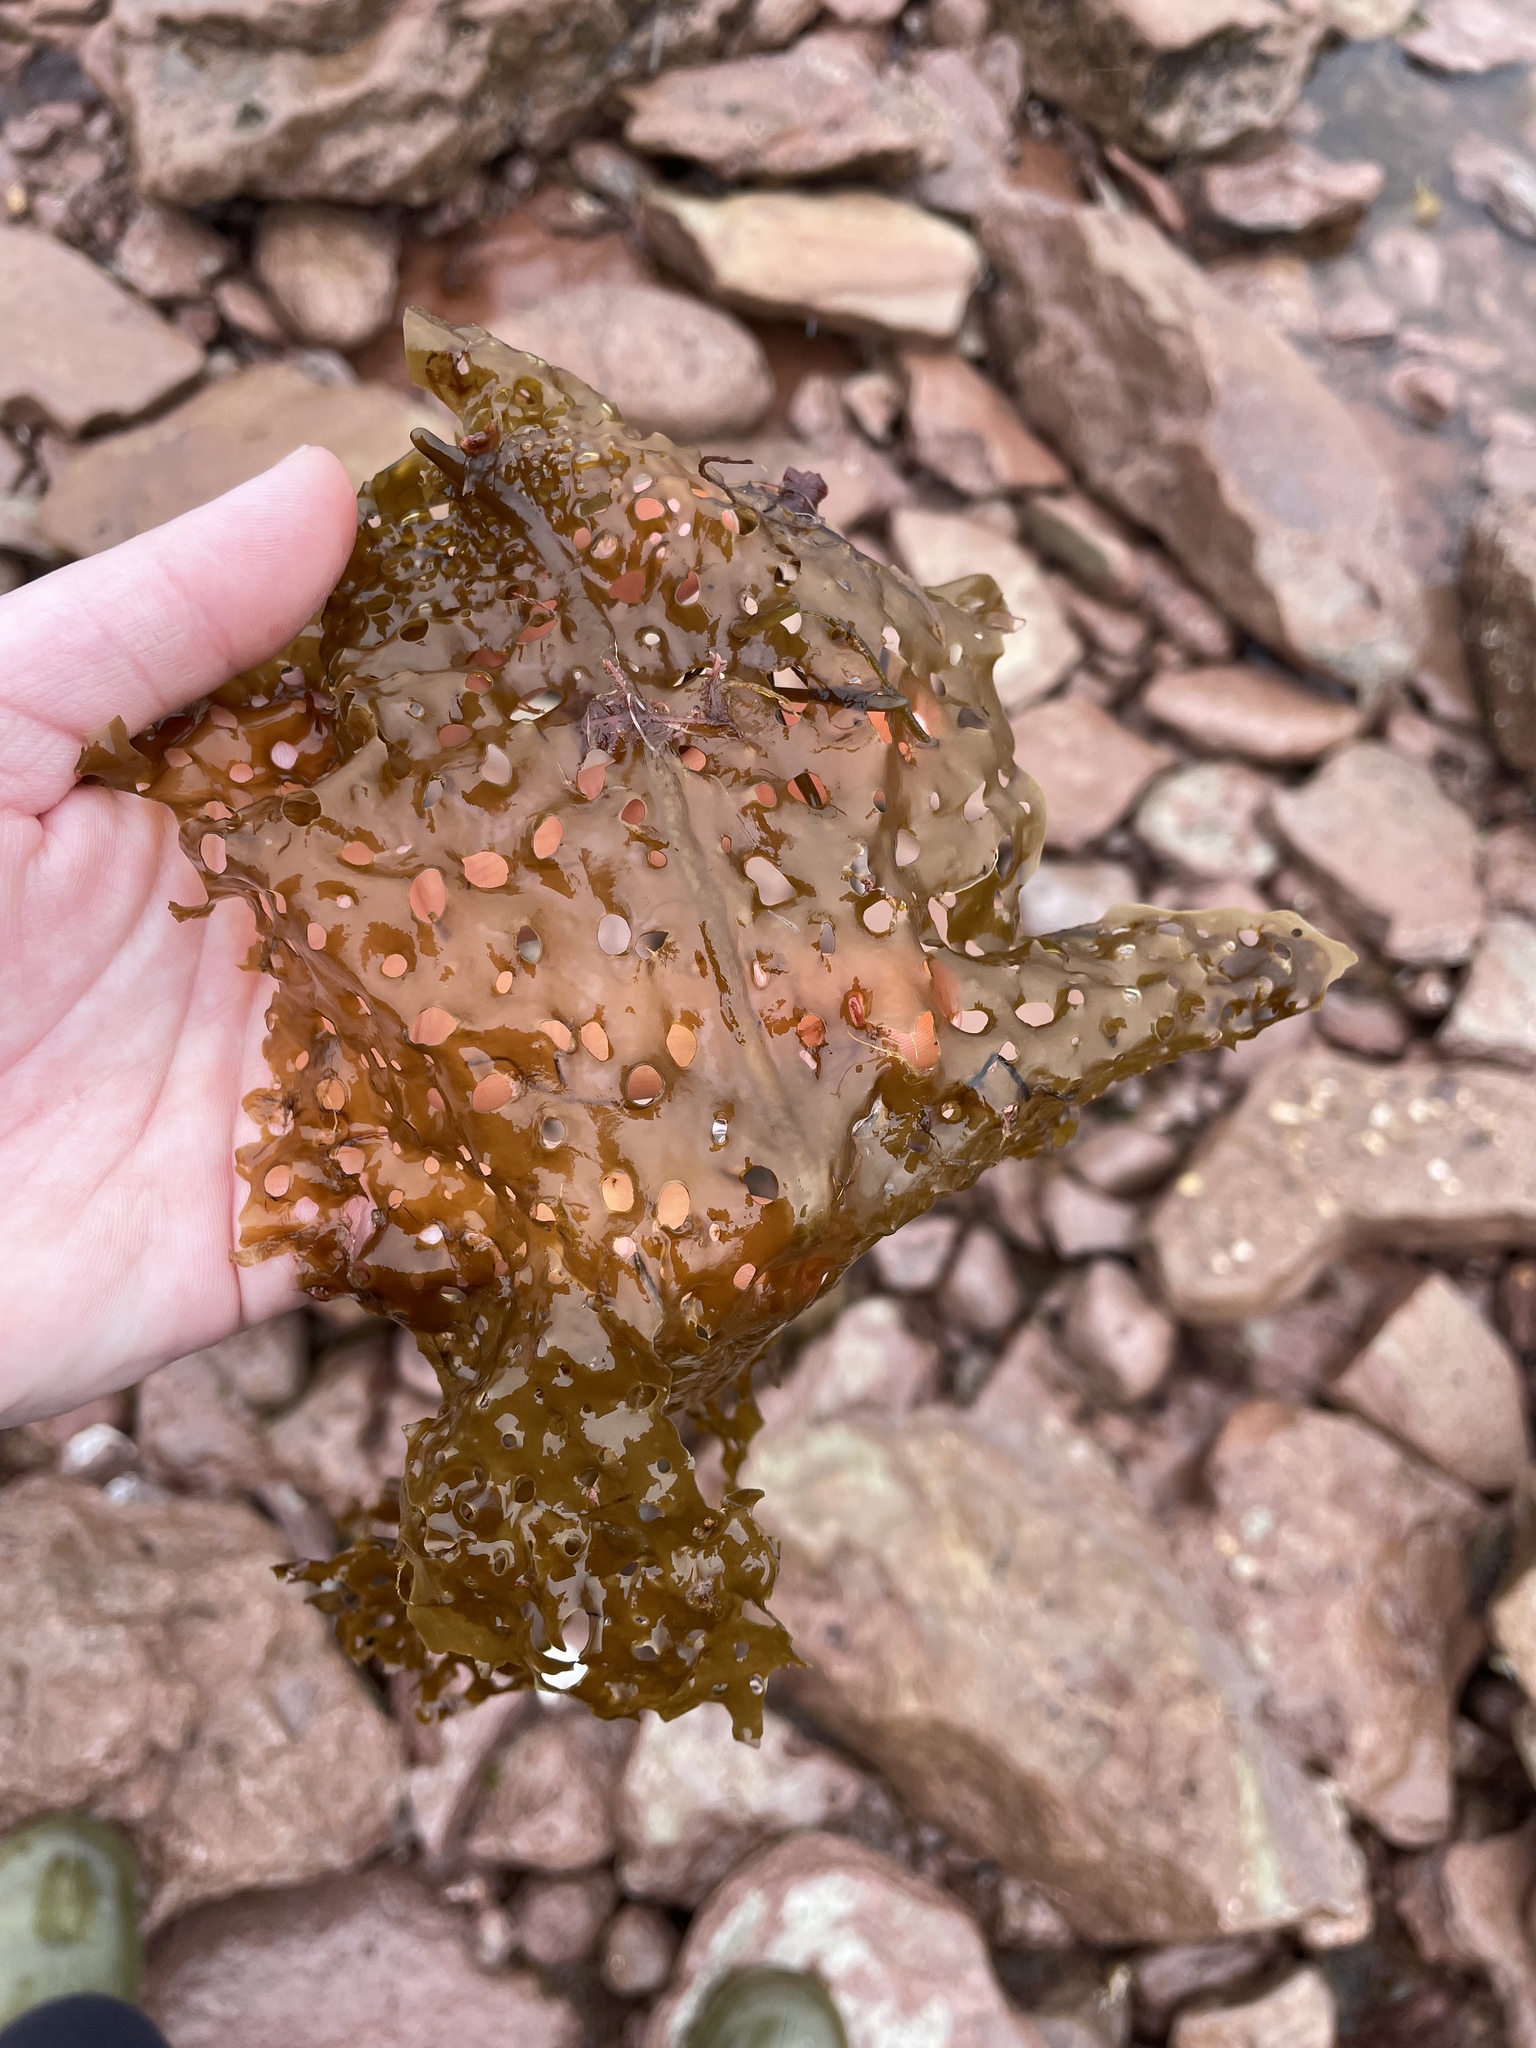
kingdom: Chromista
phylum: Ochrophyta
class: Phaeophyceae
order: Laminariales
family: Costariaceae
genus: Agarum
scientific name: Agarum clathratum
